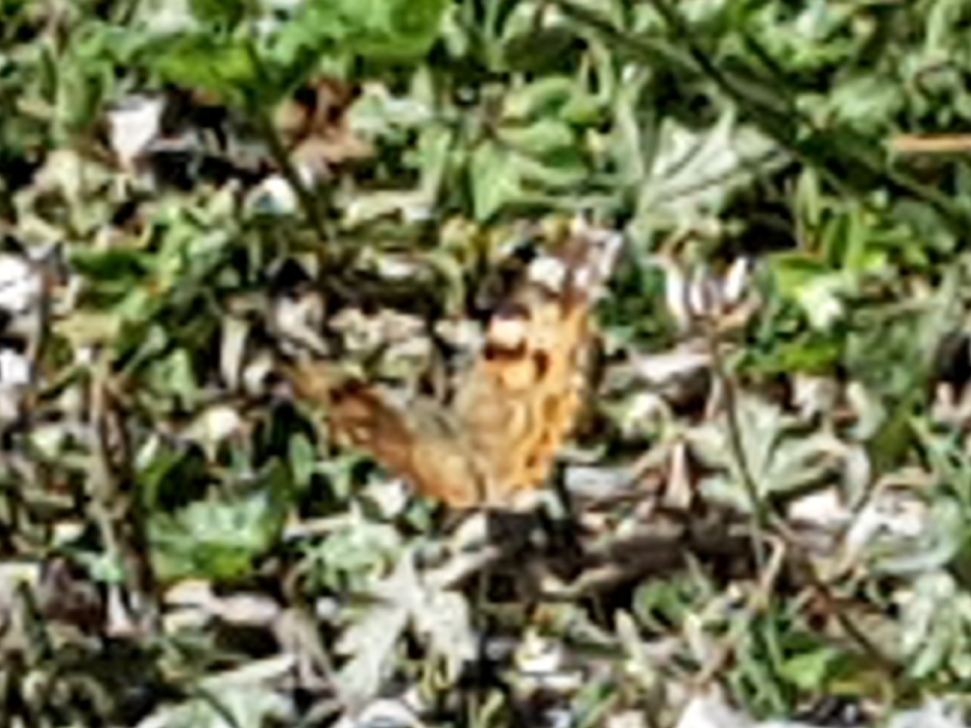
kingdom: Animalia
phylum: Arthropoda
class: Insecta
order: Lepidoptera
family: Nymphalidae
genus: Vanessa
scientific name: Vanessa cardui
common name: Painted lady
